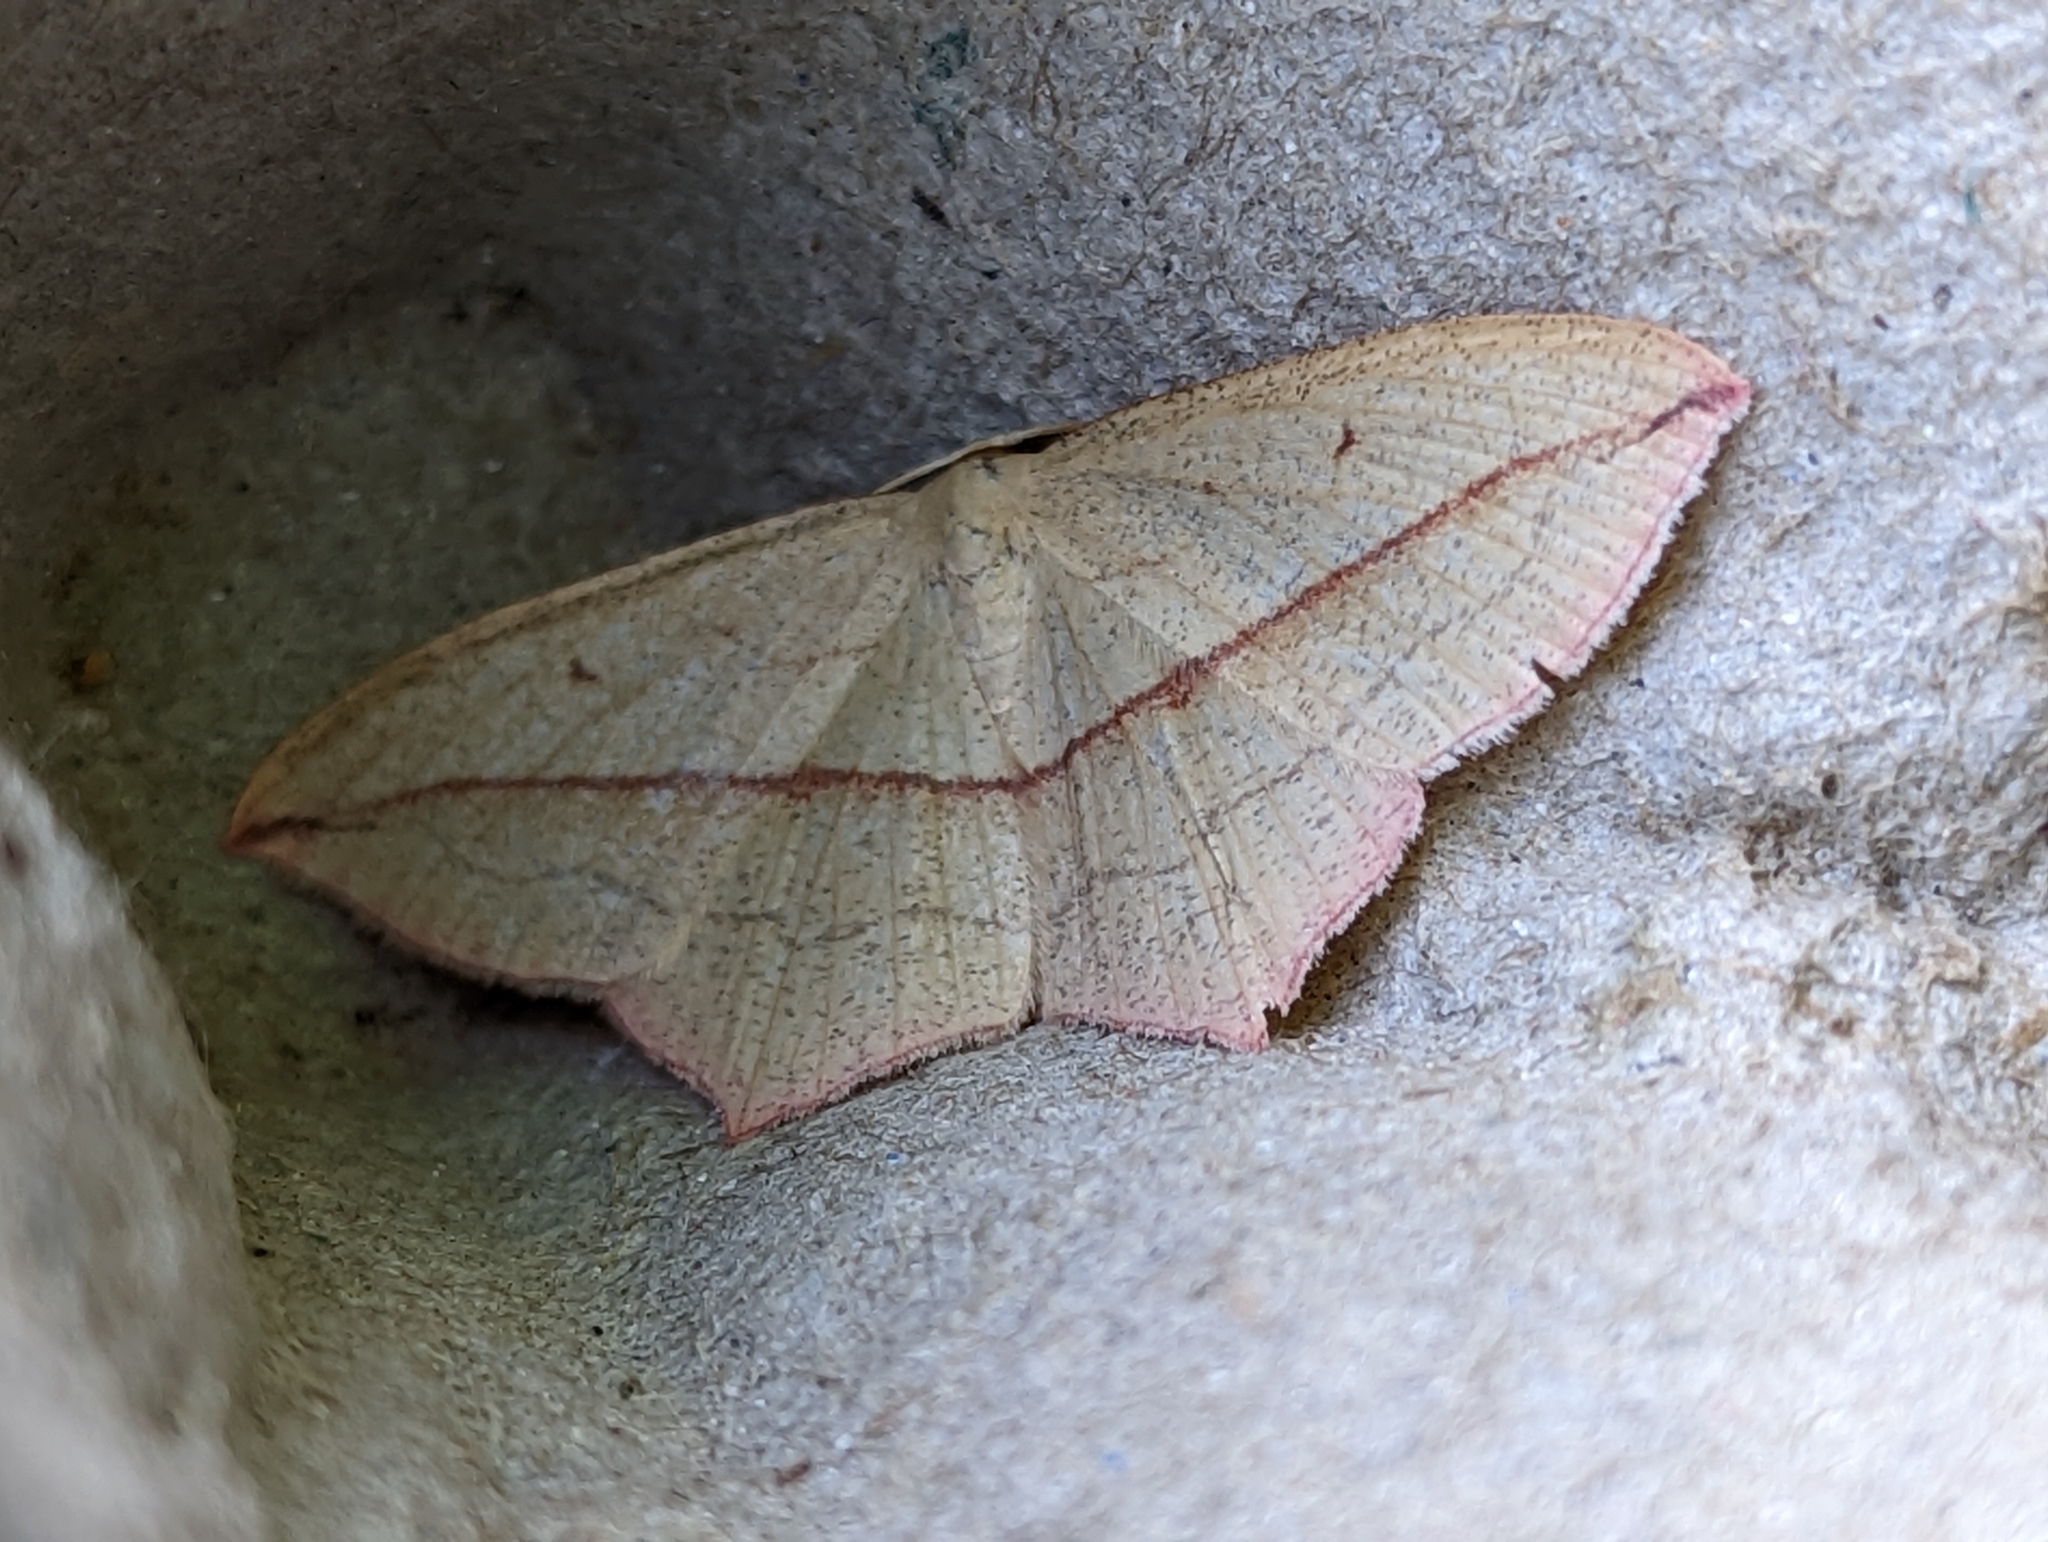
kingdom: Animalia
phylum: Arthropoda
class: Insecta
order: Lepidoptera
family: Geometridae
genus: Timandra
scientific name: Timandra comae
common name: Blood-vein
